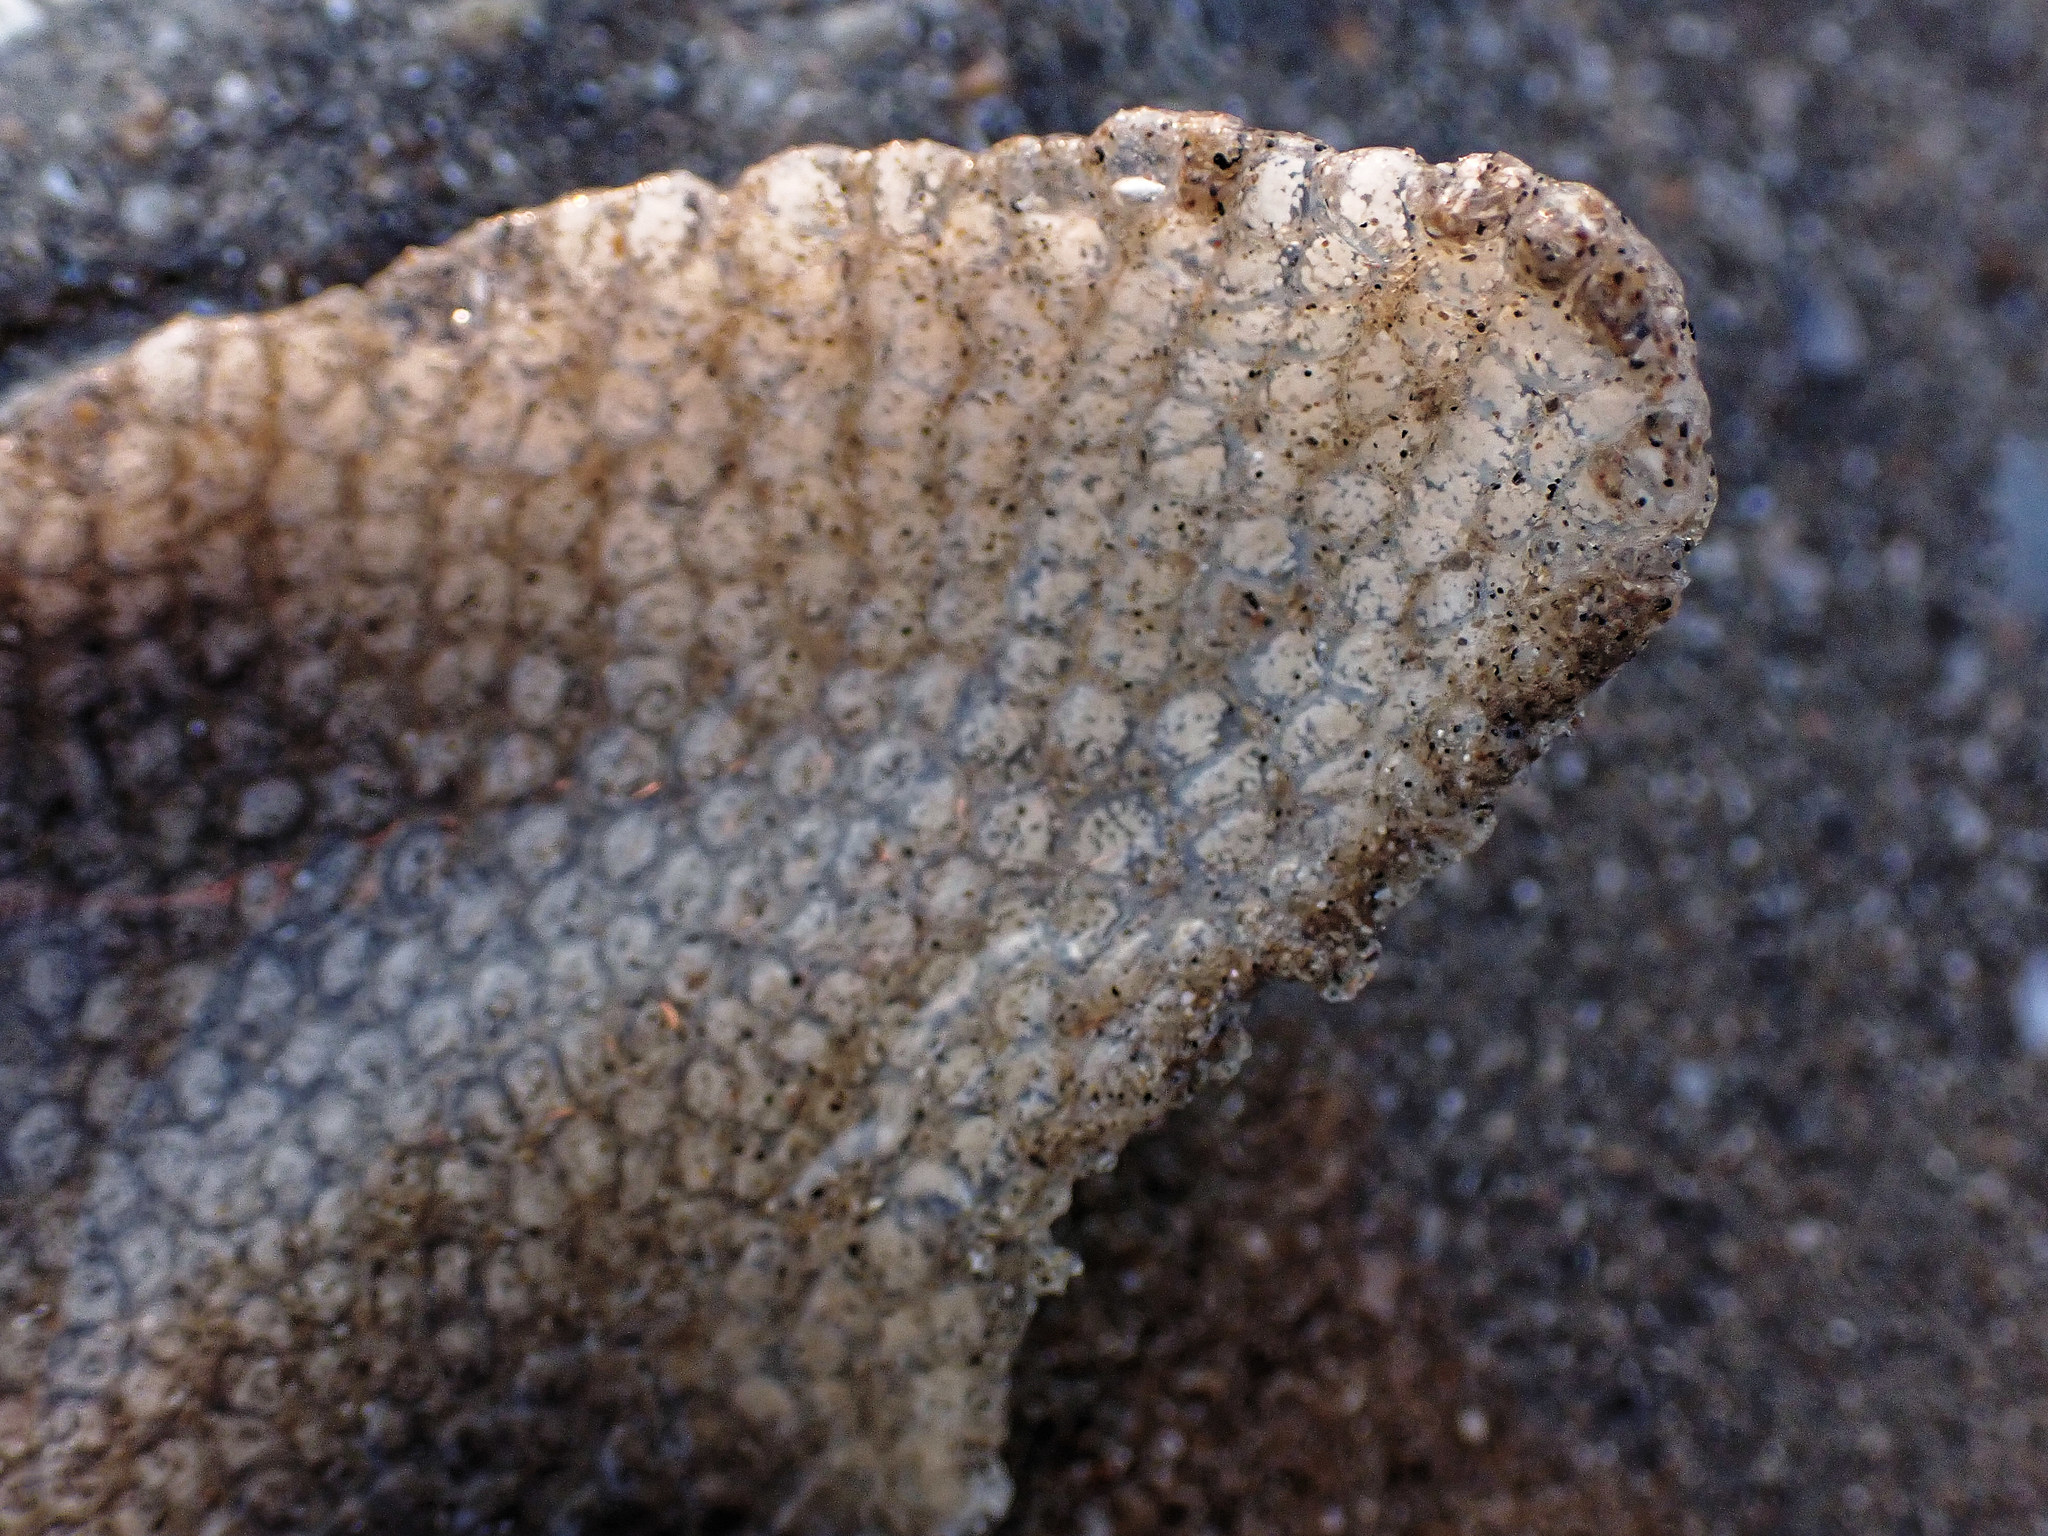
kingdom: Animalia
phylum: Mollusca
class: Gastropoda
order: Littorinimorpha
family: Naticidae
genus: Euspira
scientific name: Euspira catena
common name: Necklace shell
